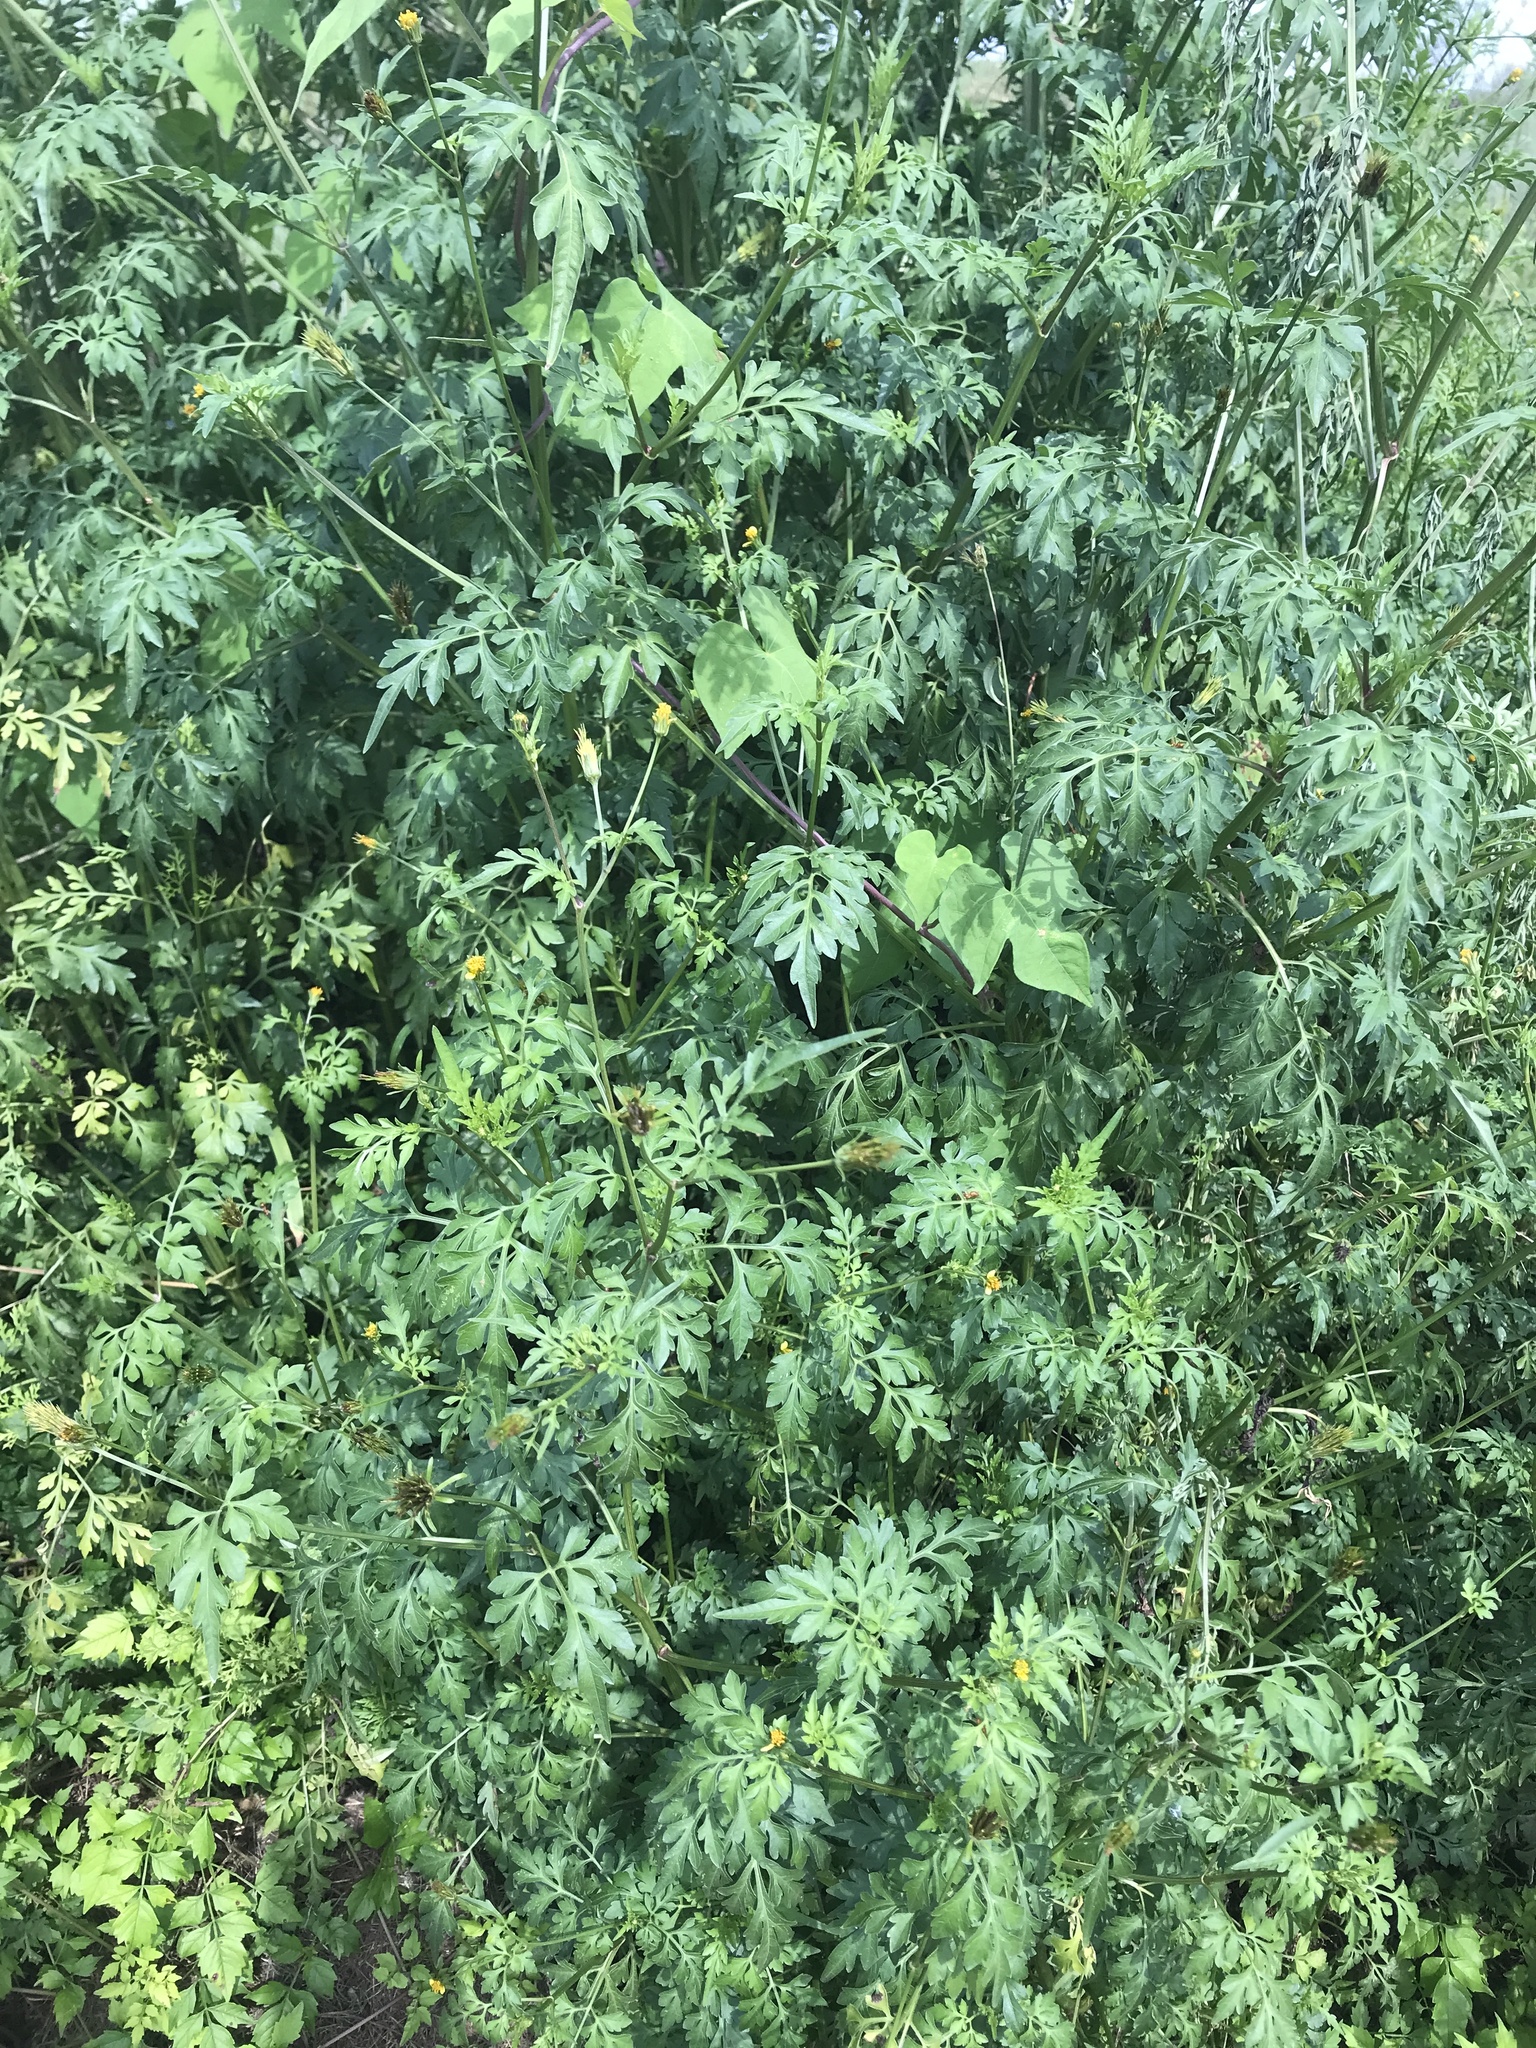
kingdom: Plantae
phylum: Tracheophyta
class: Magnoliopsida
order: Asterales
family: Asteraceae
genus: Bidens
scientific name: Bidens bipinnata
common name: Spanish-needles
